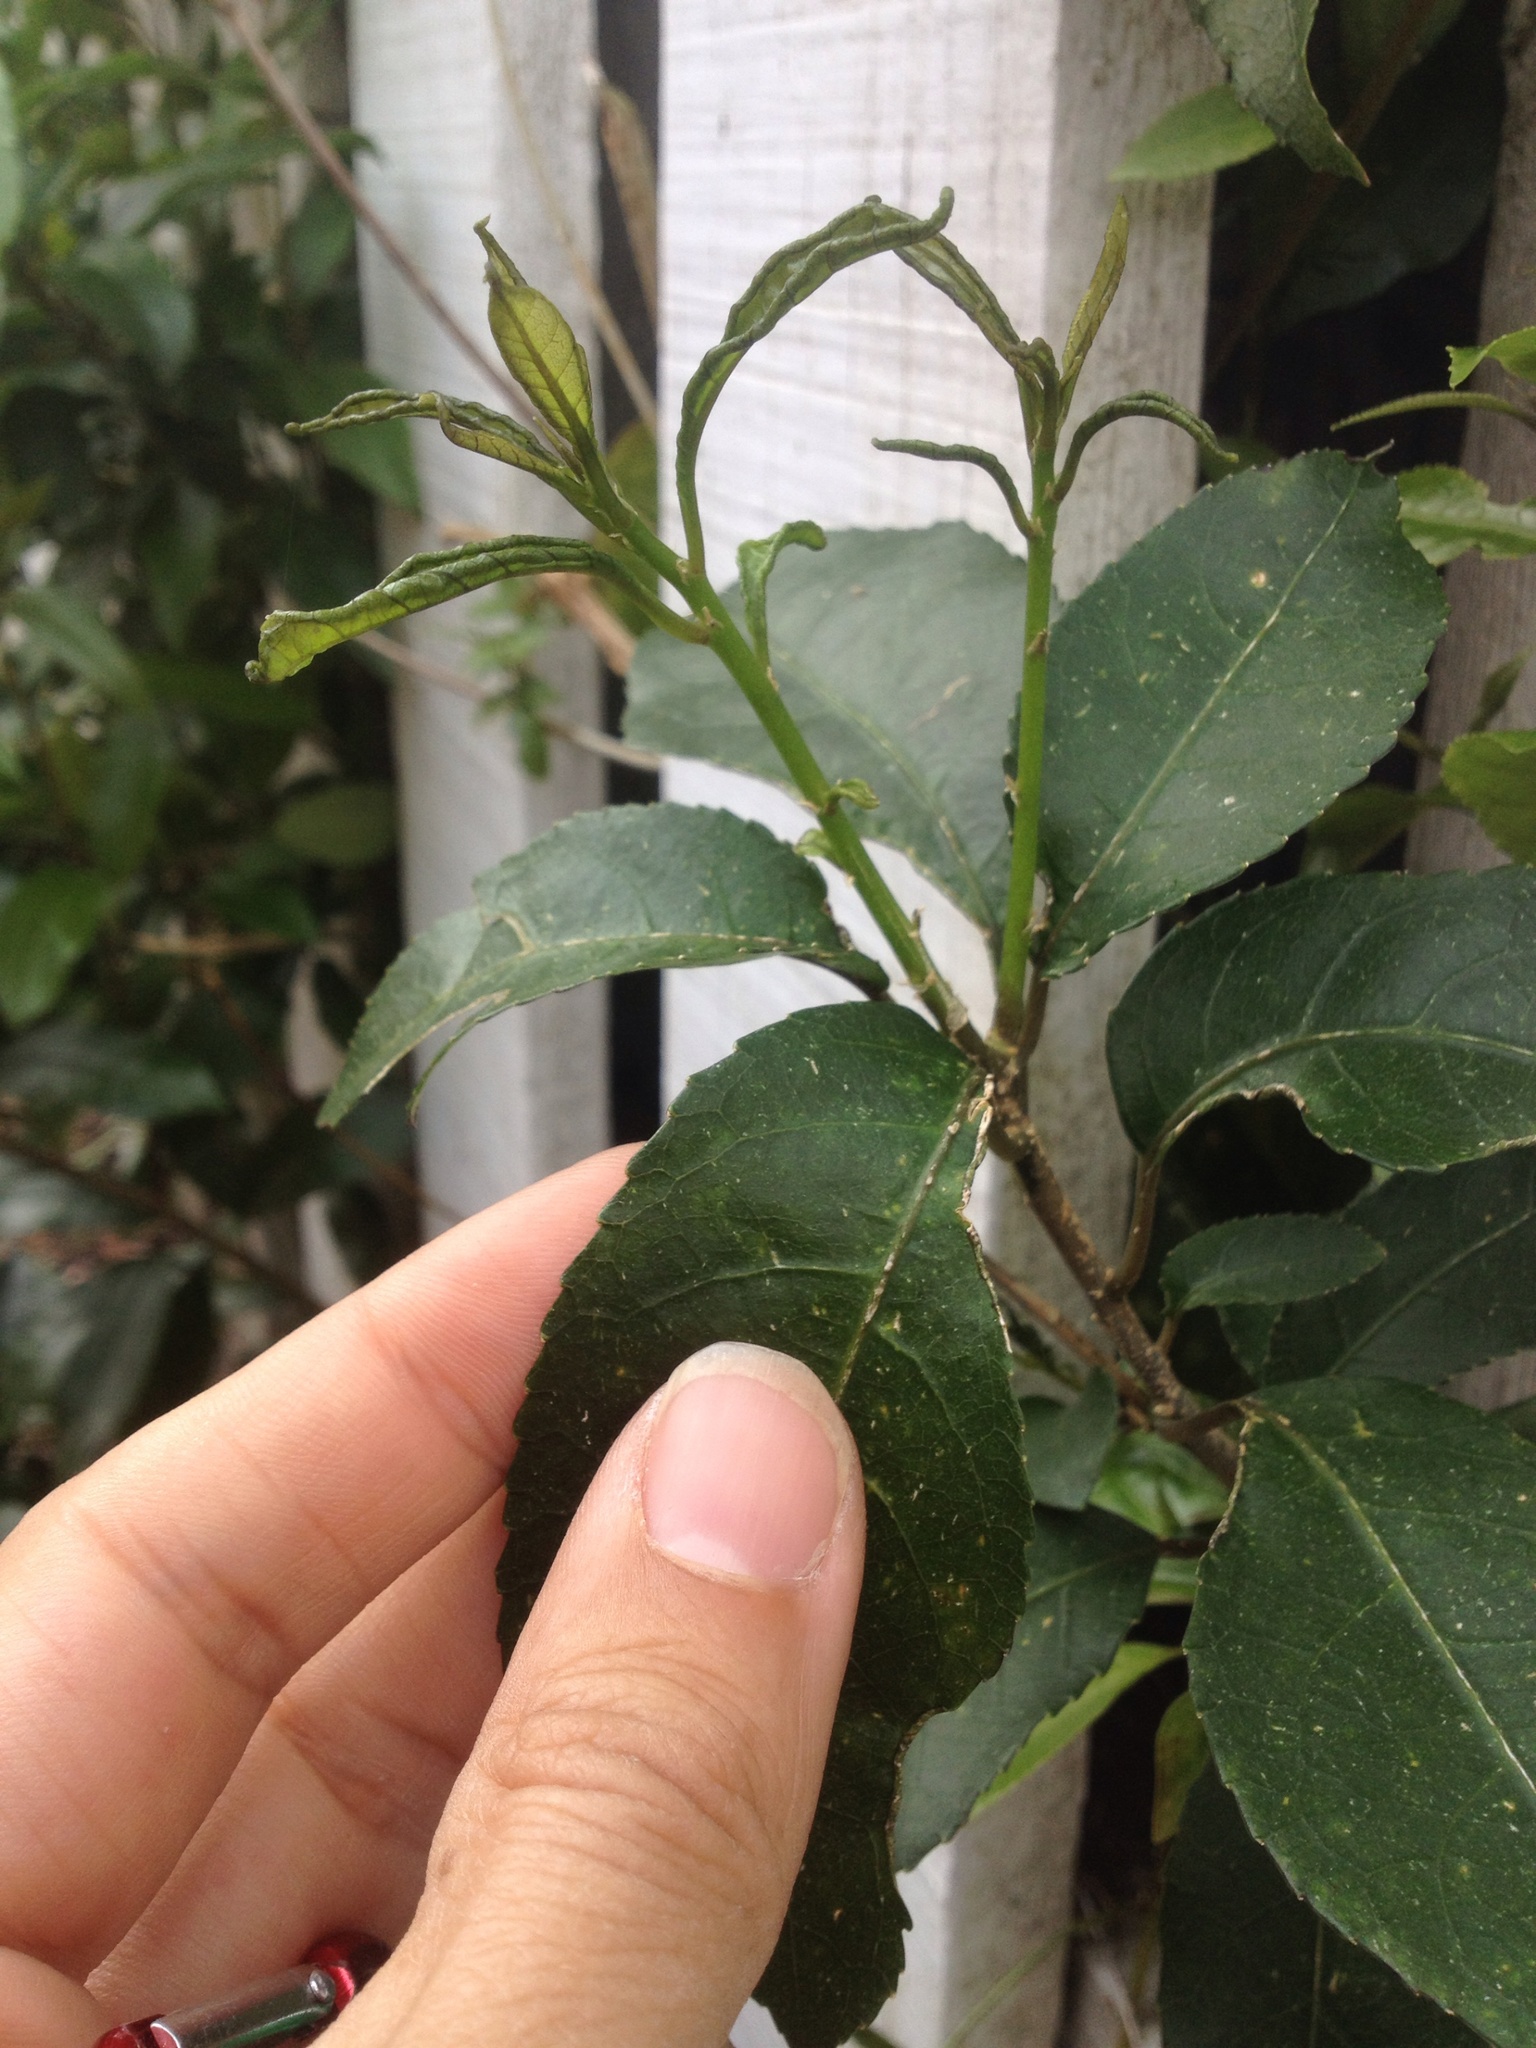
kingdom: Animalia
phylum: Arthropoda
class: Arachnida
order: Trombidiformes
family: Eriophyidae
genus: Aceria
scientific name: Aceria
